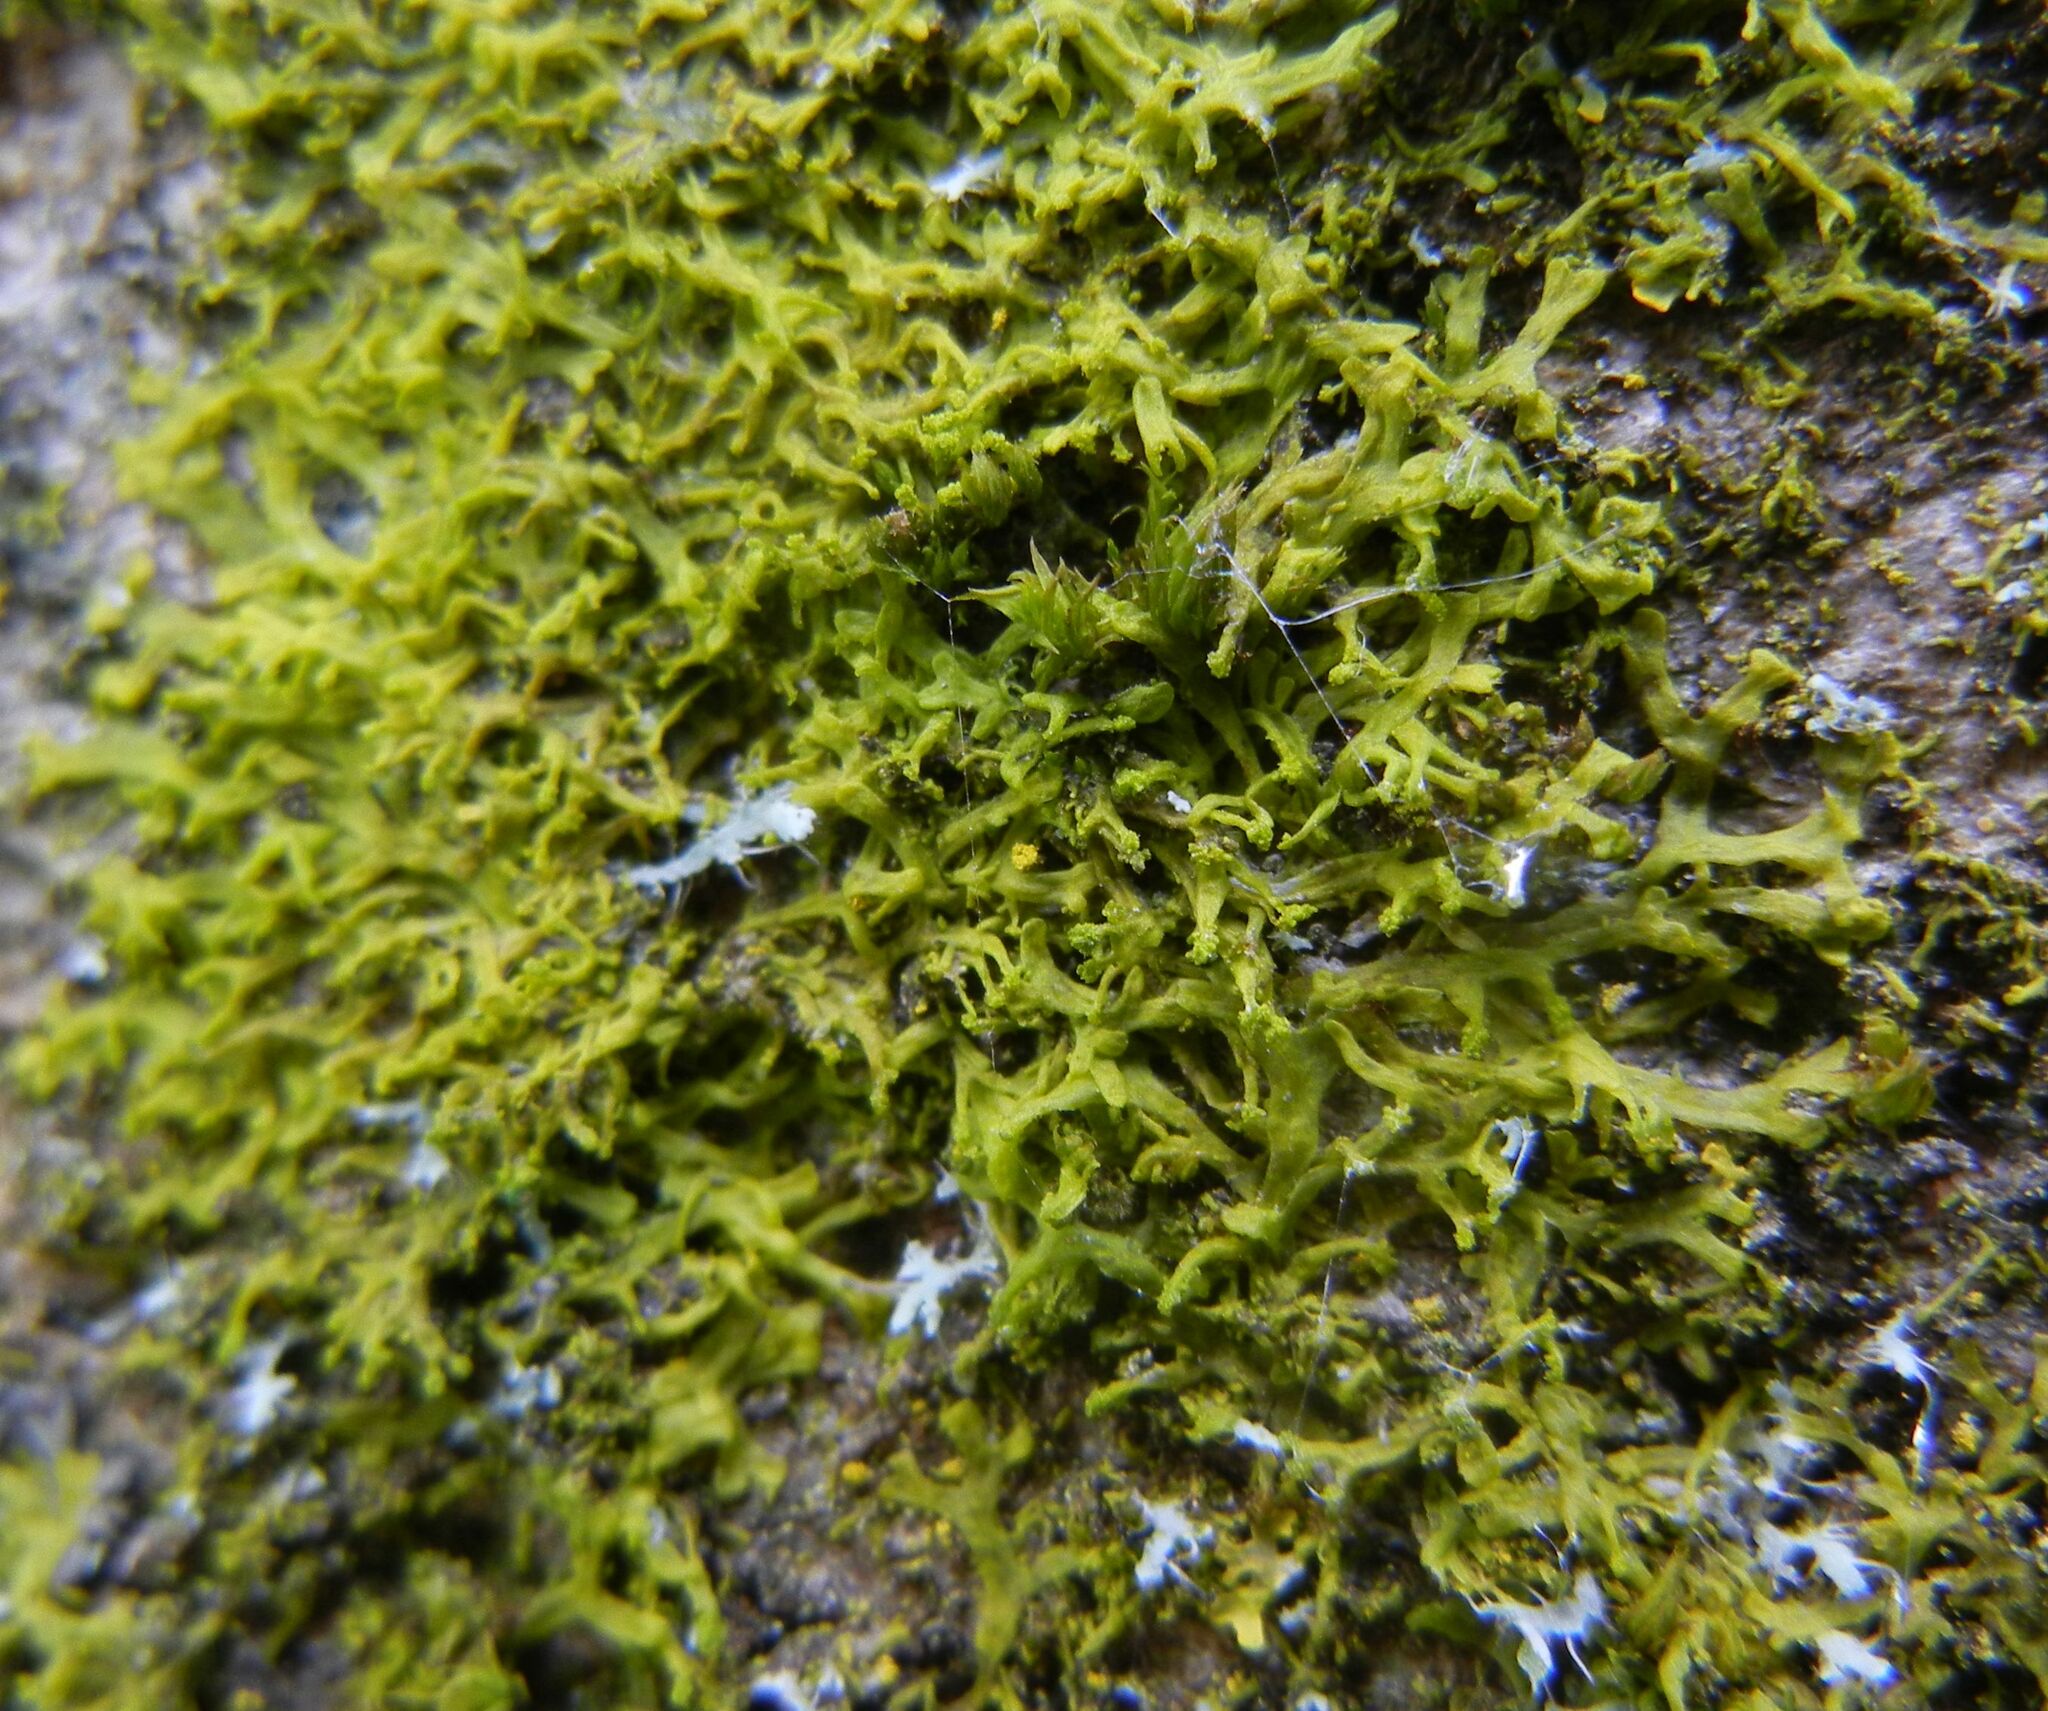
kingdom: Plantae
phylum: Marchantiophyta
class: Jungermanniopsida
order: Metzgeriales
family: Metzgeriaceae
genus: Metzgeria
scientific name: Metzgeria violacea
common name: Blueish veilwort
